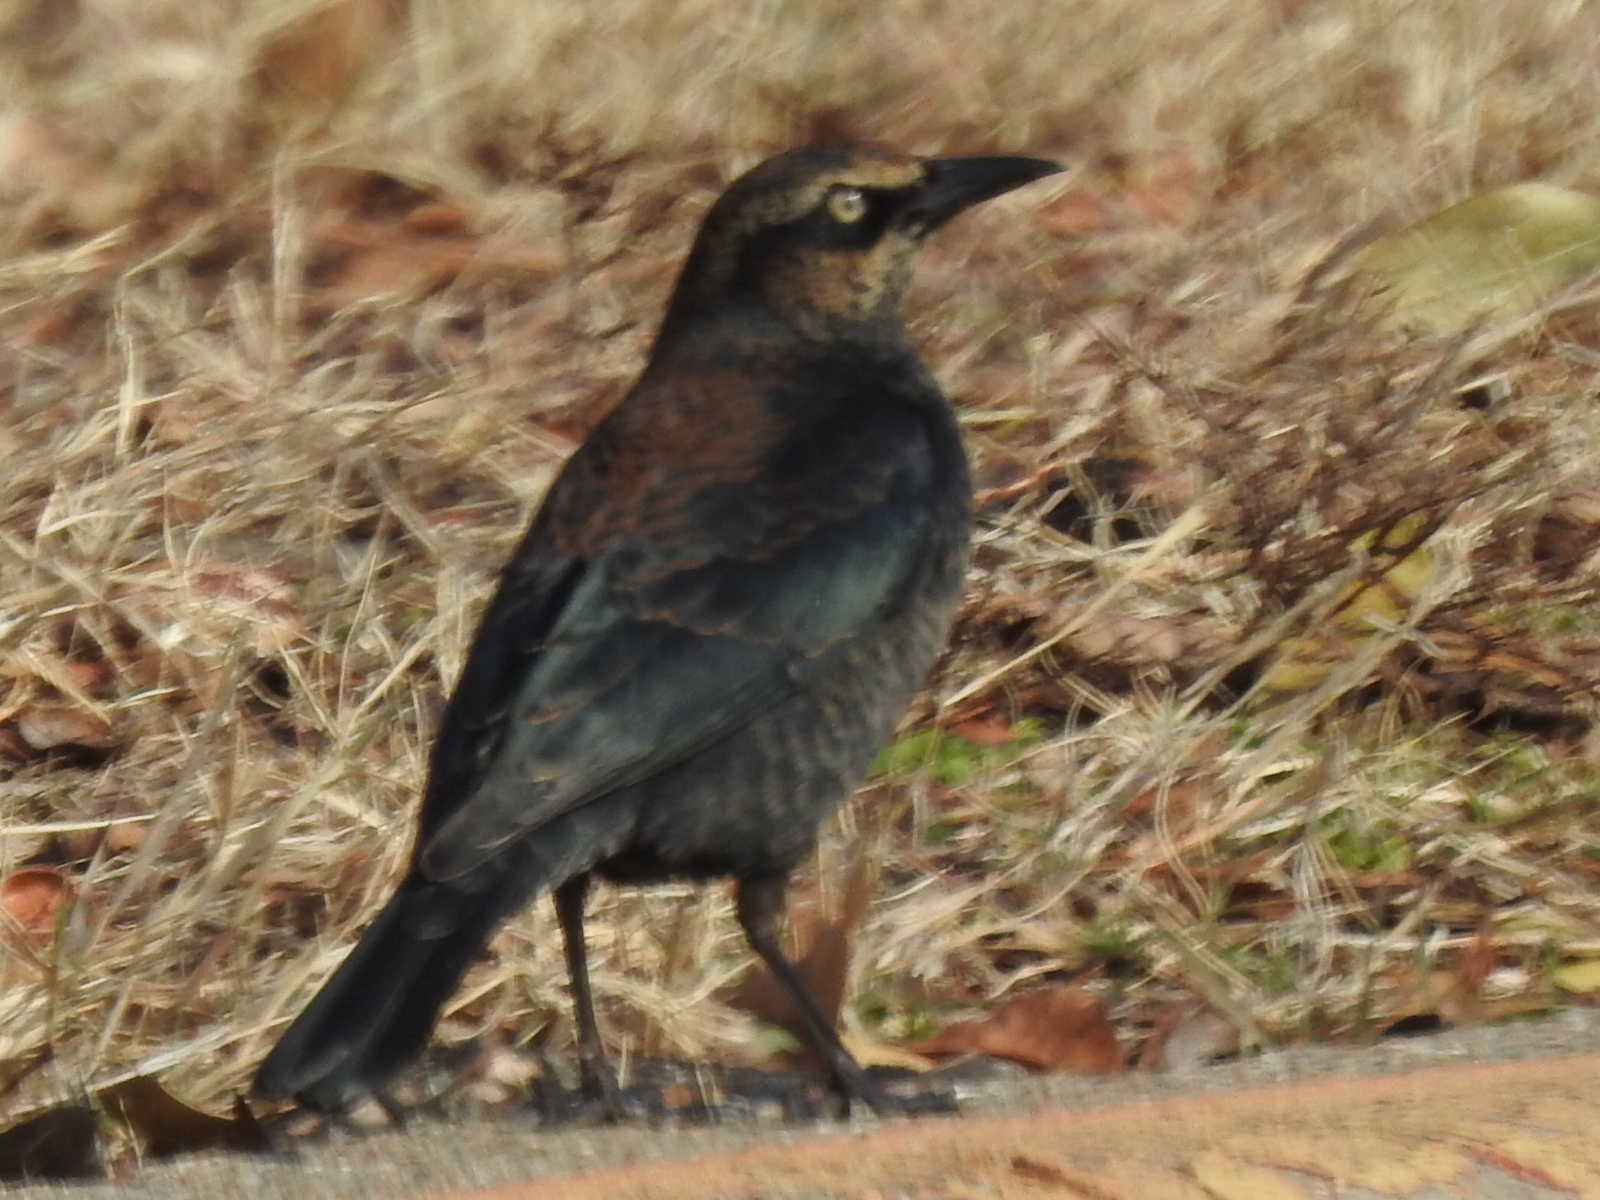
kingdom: Animalia
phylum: Chordata
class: Aves
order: Passeriformes
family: Icteridae
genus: Euphagus
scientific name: Euphagus carolinus
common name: Rusty blackbird
